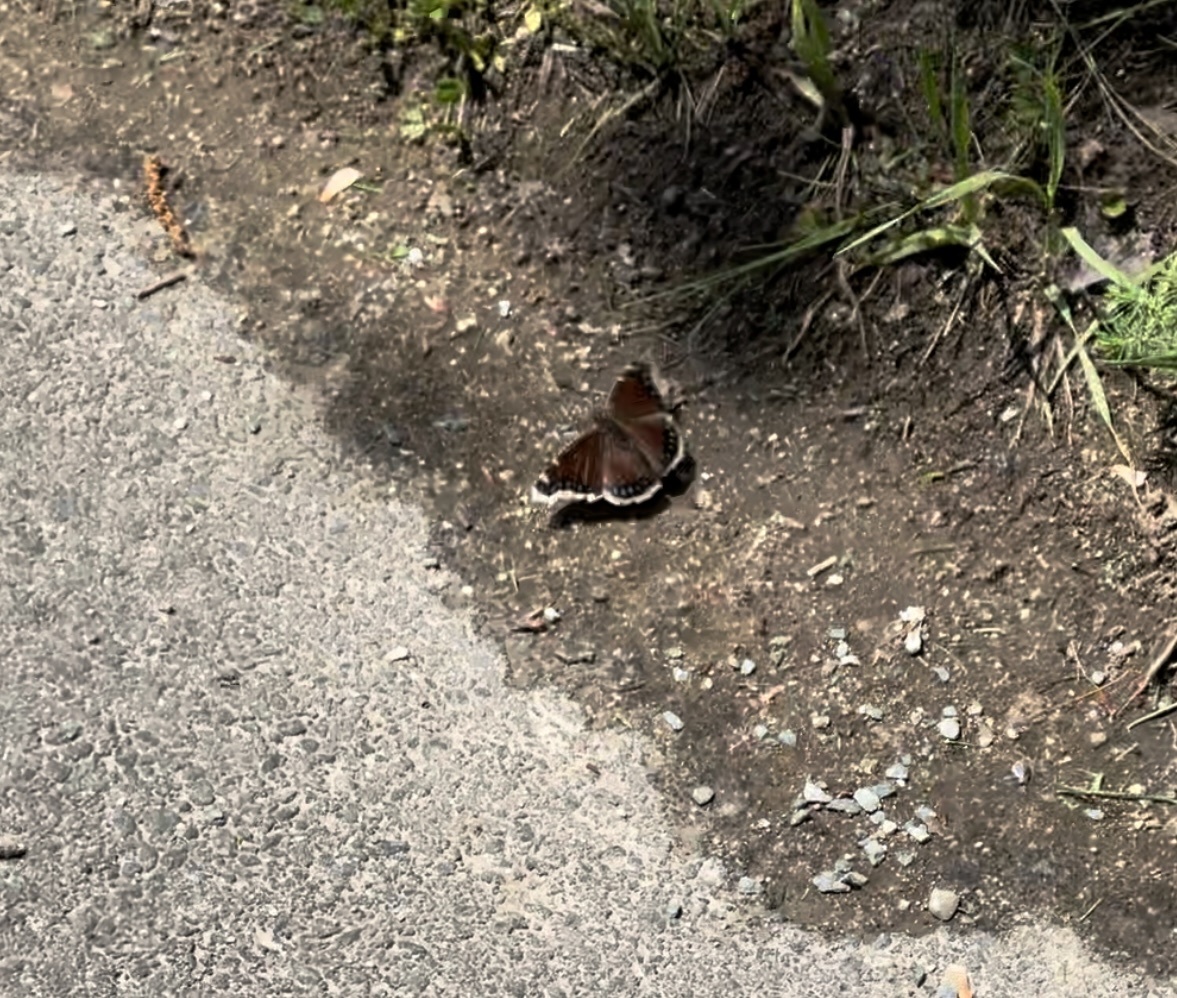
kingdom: Animalia
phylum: Arthropoda
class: Insecta
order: Lepidoptera
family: Nymphalidae
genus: Nymphalis
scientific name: Nymphalis antiopa
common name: Camberwell beauty
